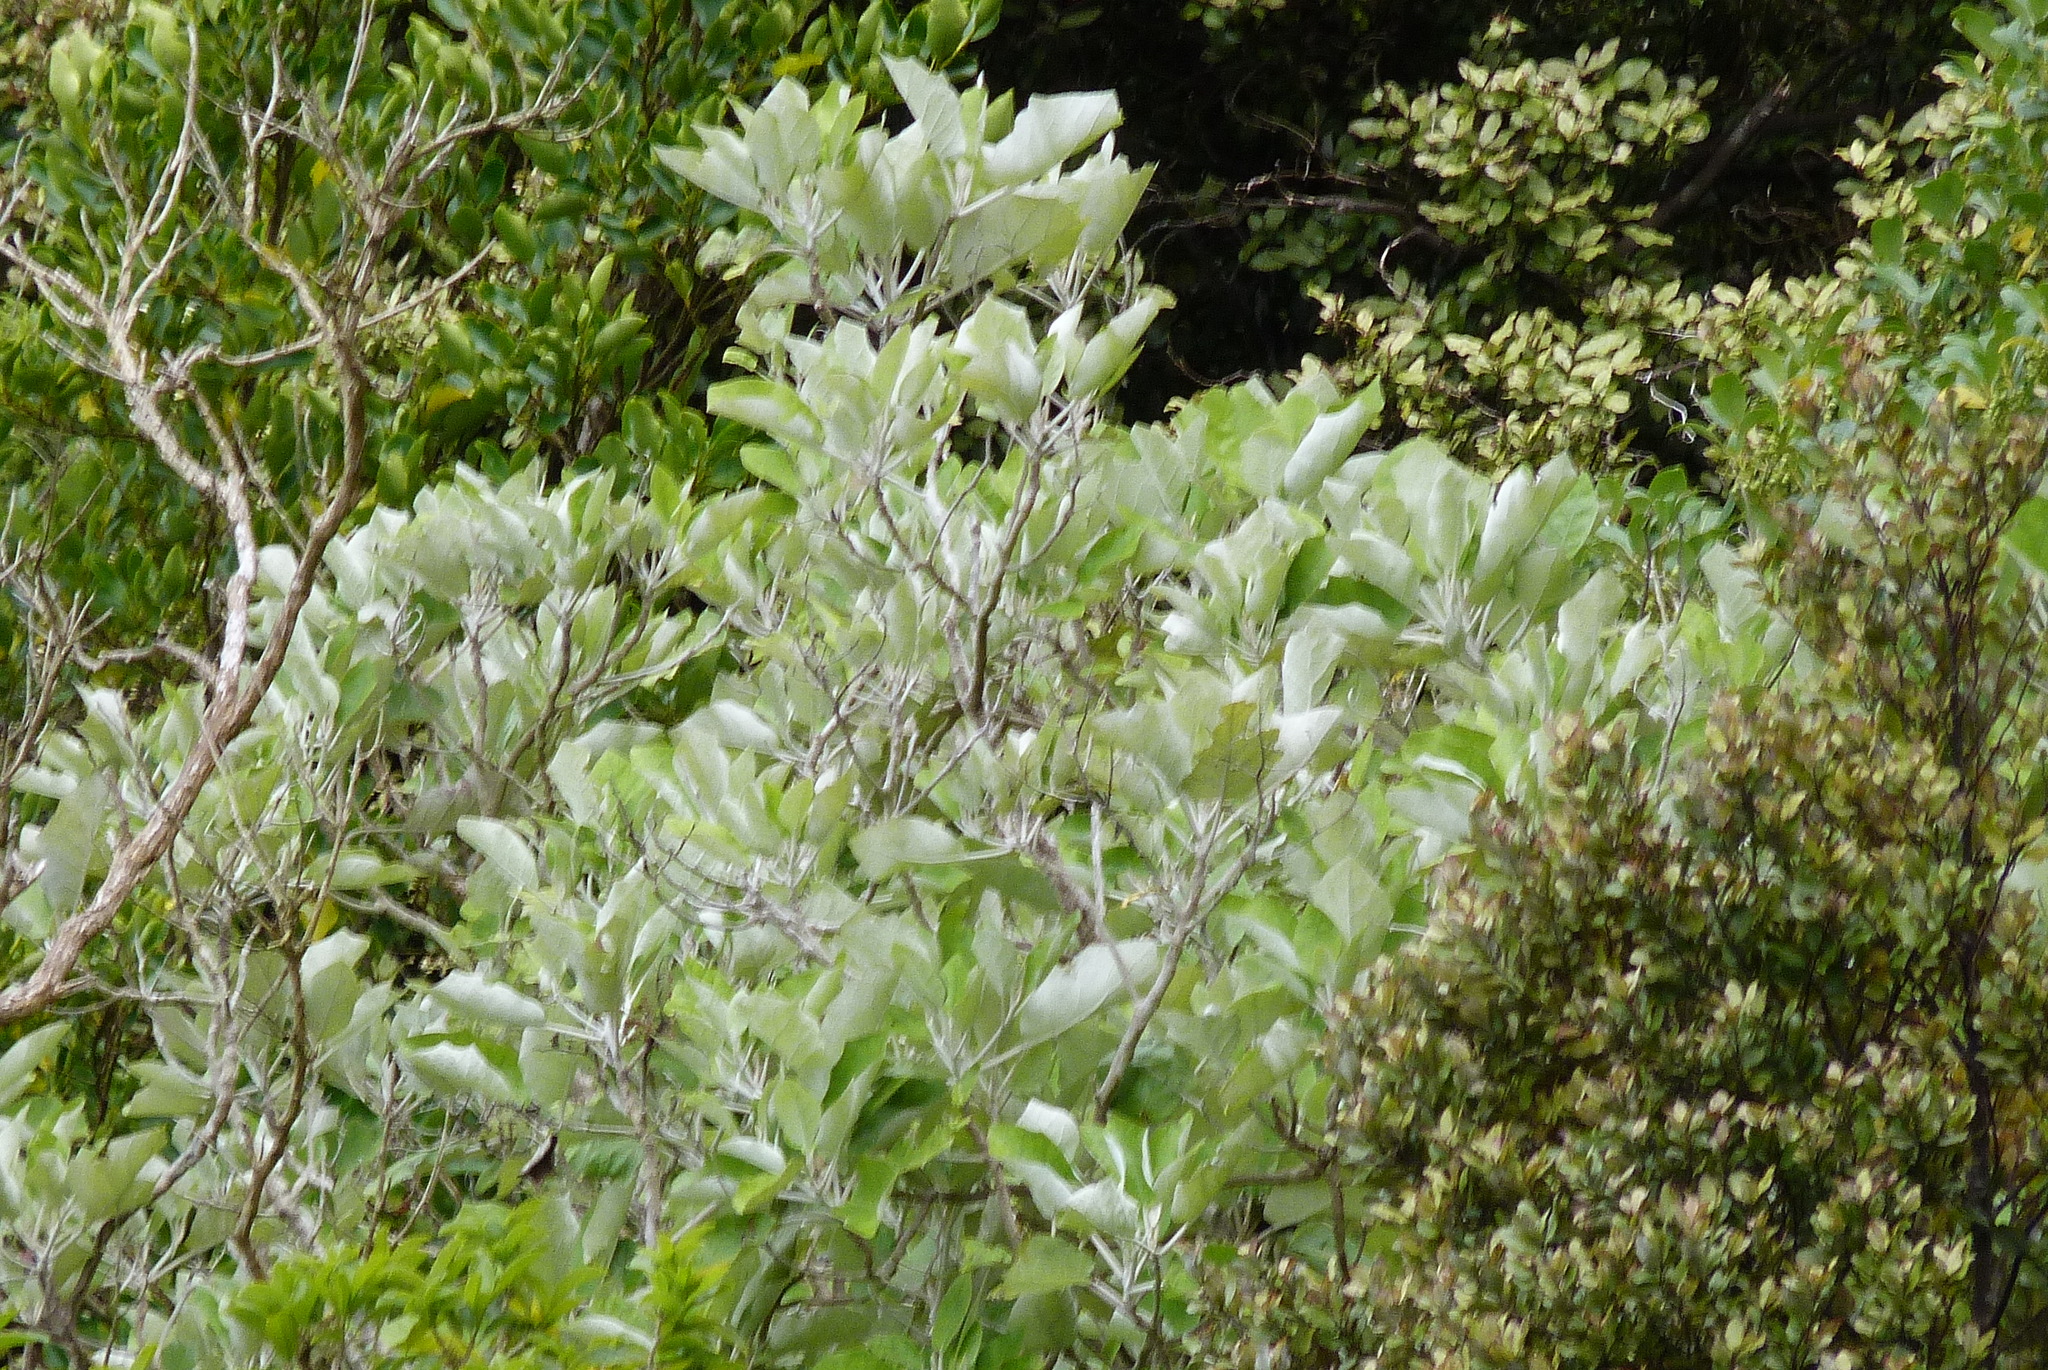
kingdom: Plantae
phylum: Tracheophyta
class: Magnoliopsida
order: Asterales
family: Asteraceae
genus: Brachyglottis
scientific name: Brachyglottis repanda
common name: Hedge ragwort
